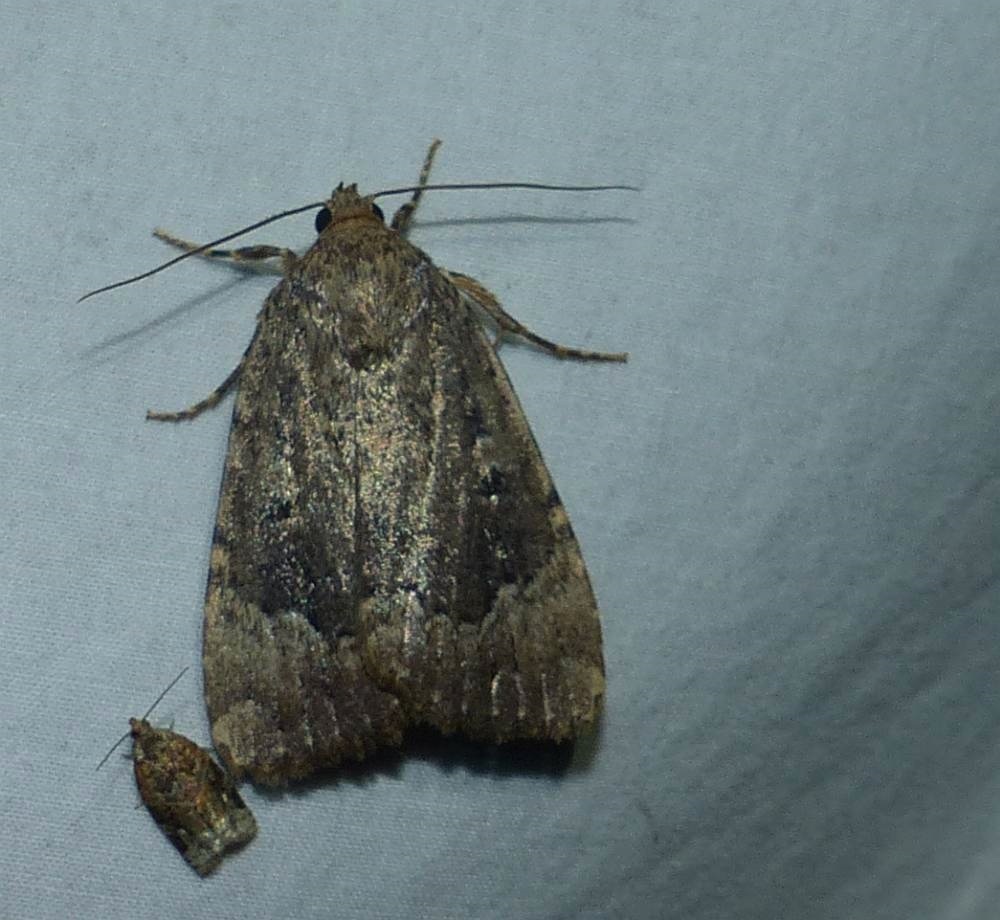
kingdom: Animalia
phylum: Arthropoda
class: Insecta
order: Lepidoptera
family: Noctuidae
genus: Amphipyra
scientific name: Amphipyra pyramidoides
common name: American copper underwing
